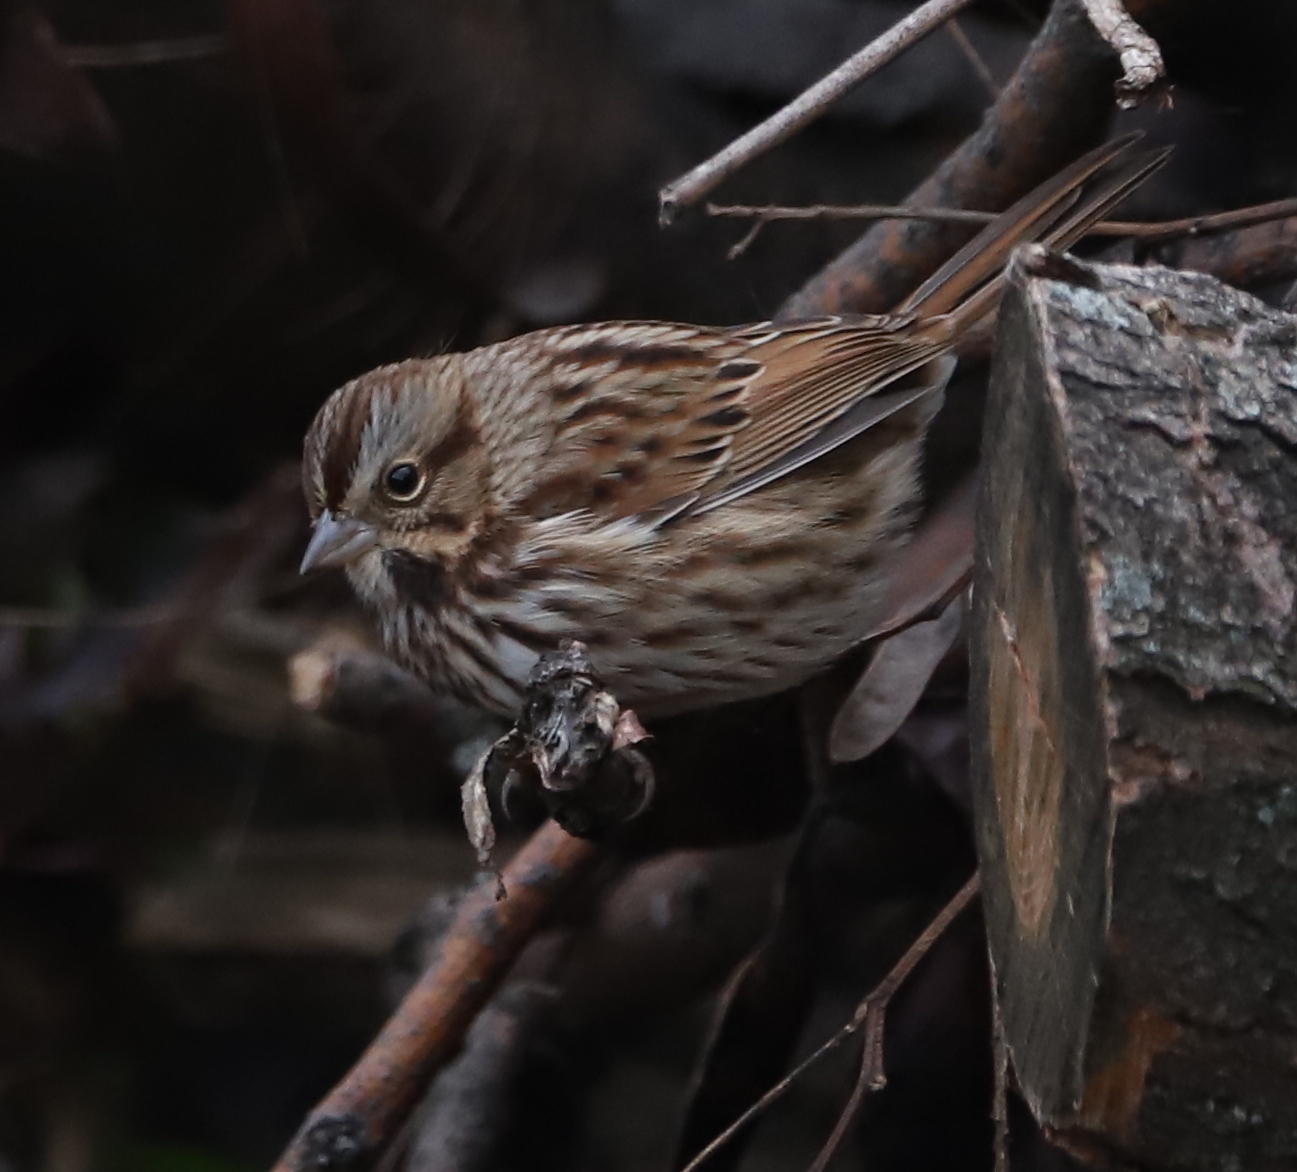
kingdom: Animalia
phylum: Chordata
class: Aves
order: Passeriformes
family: Passerellidae
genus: Melospiza
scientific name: Melospiza melodia
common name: Song sparrow
